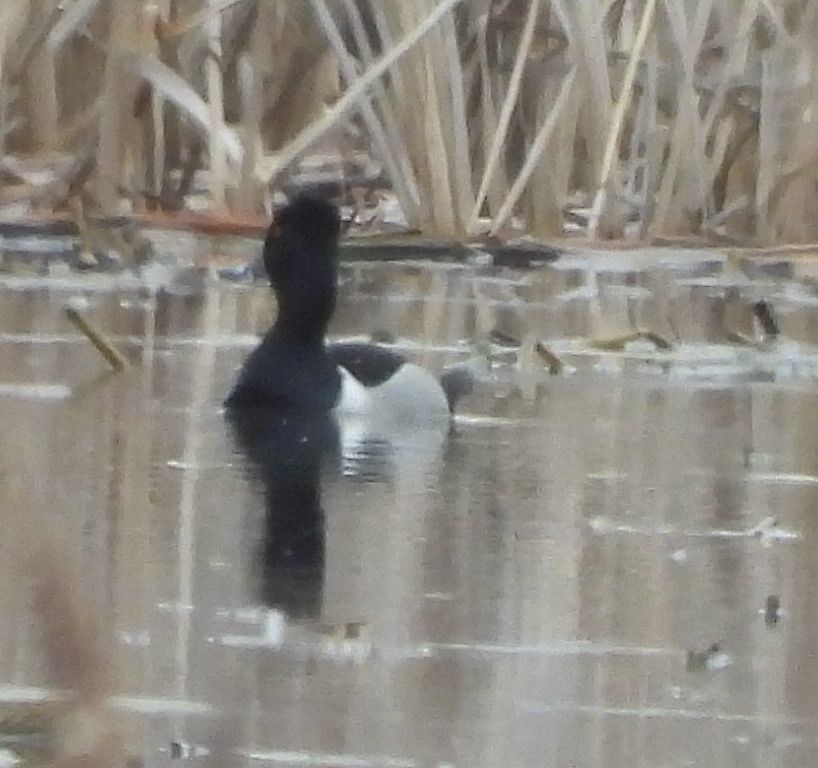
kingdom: Animalia
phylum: Chordata
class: Aves
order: Anseriformes
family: Anatidae
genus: Aythya
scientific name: Aythya collaris
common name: Ring-necked duck
